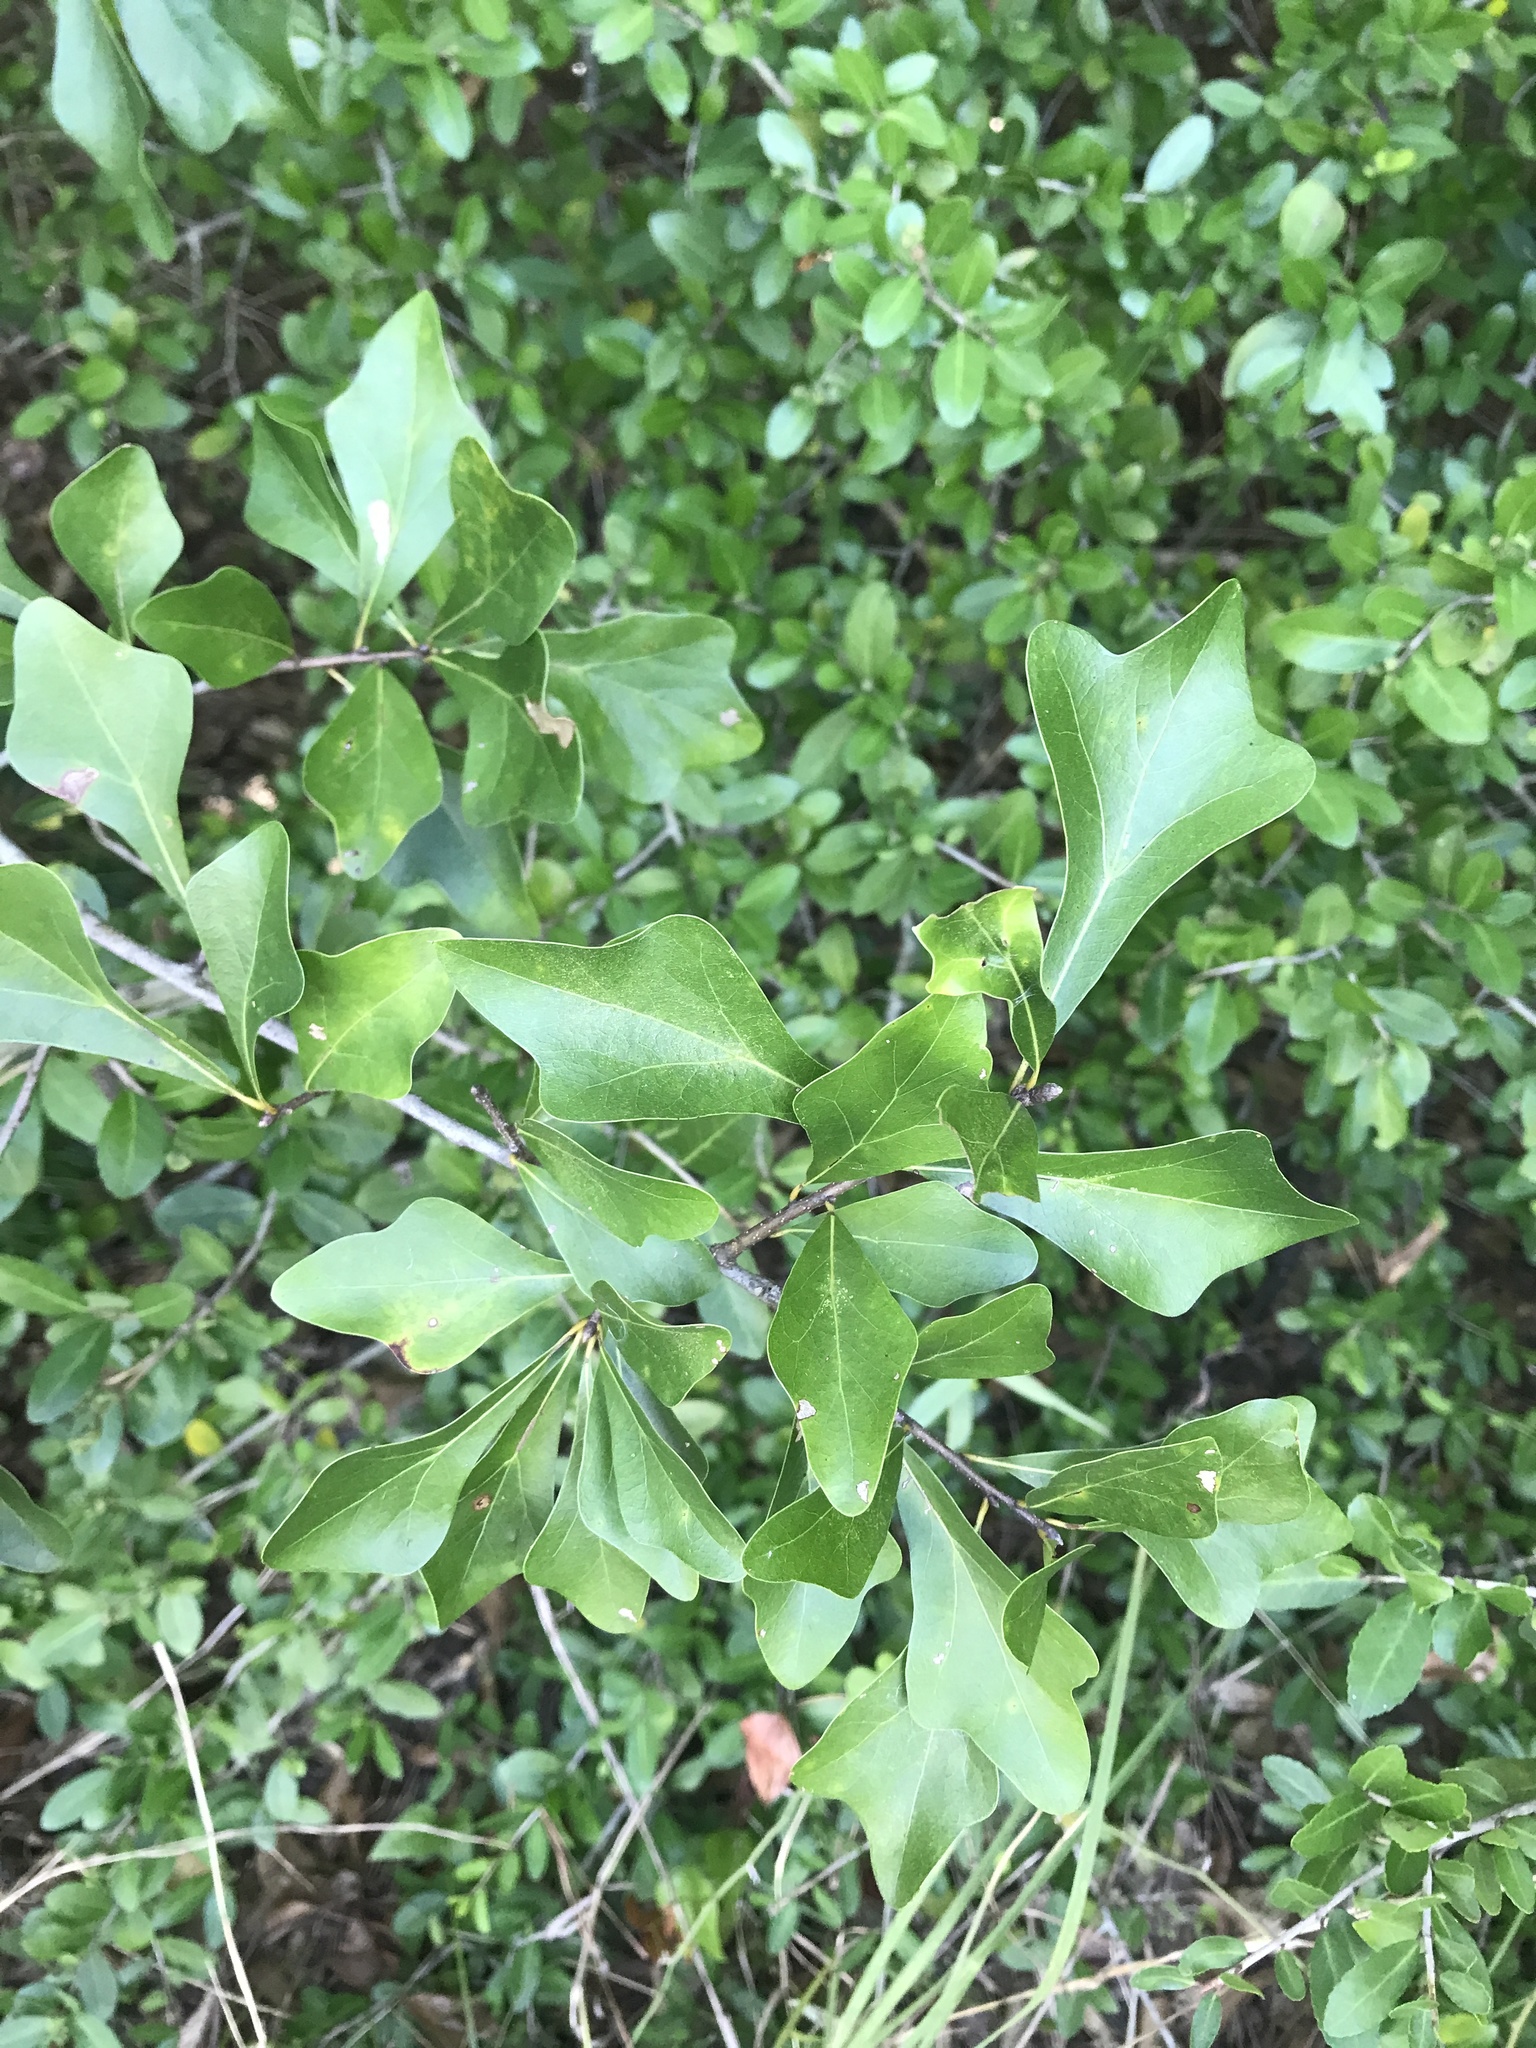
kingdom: Plantae
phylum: Tracheophyta
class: Magnoliopsida
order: Aquifoliales
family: Aquifoliaceae
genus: Ilex
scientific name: Ilex vomitoria
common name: Yaupon holly
